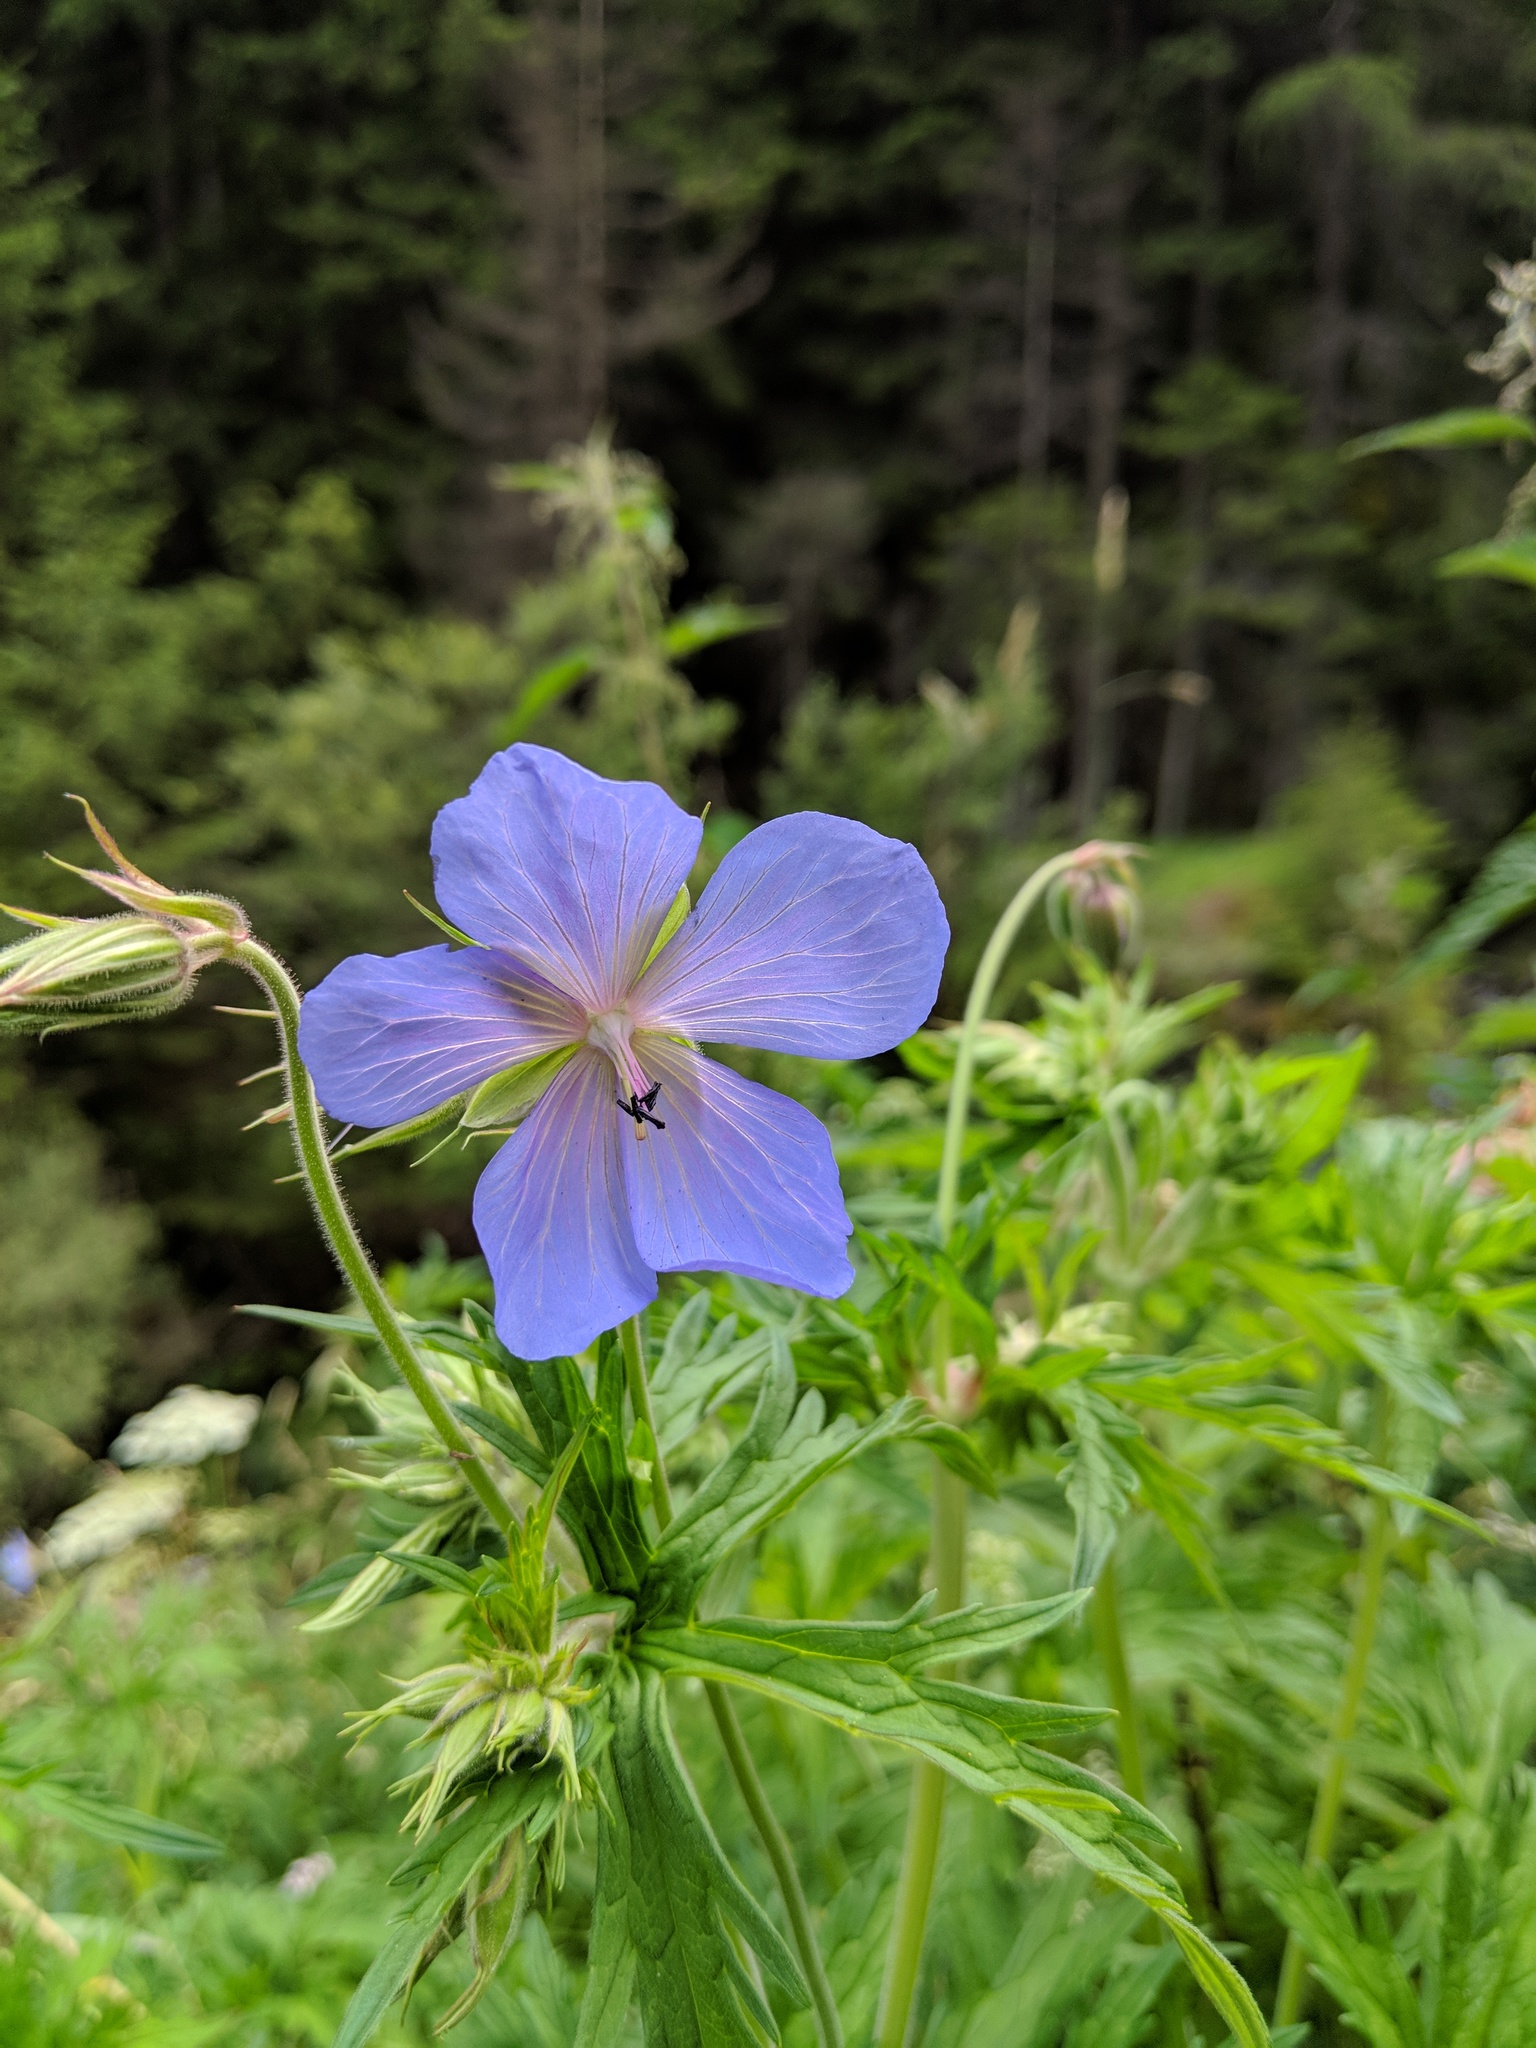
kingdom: Plantae
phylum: Tracheophyta
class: Magnoliopsida
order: Geraniales
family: Geraniaceae
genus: Geranium
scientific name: Geranium pratense
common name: Meadow crane's-bill
